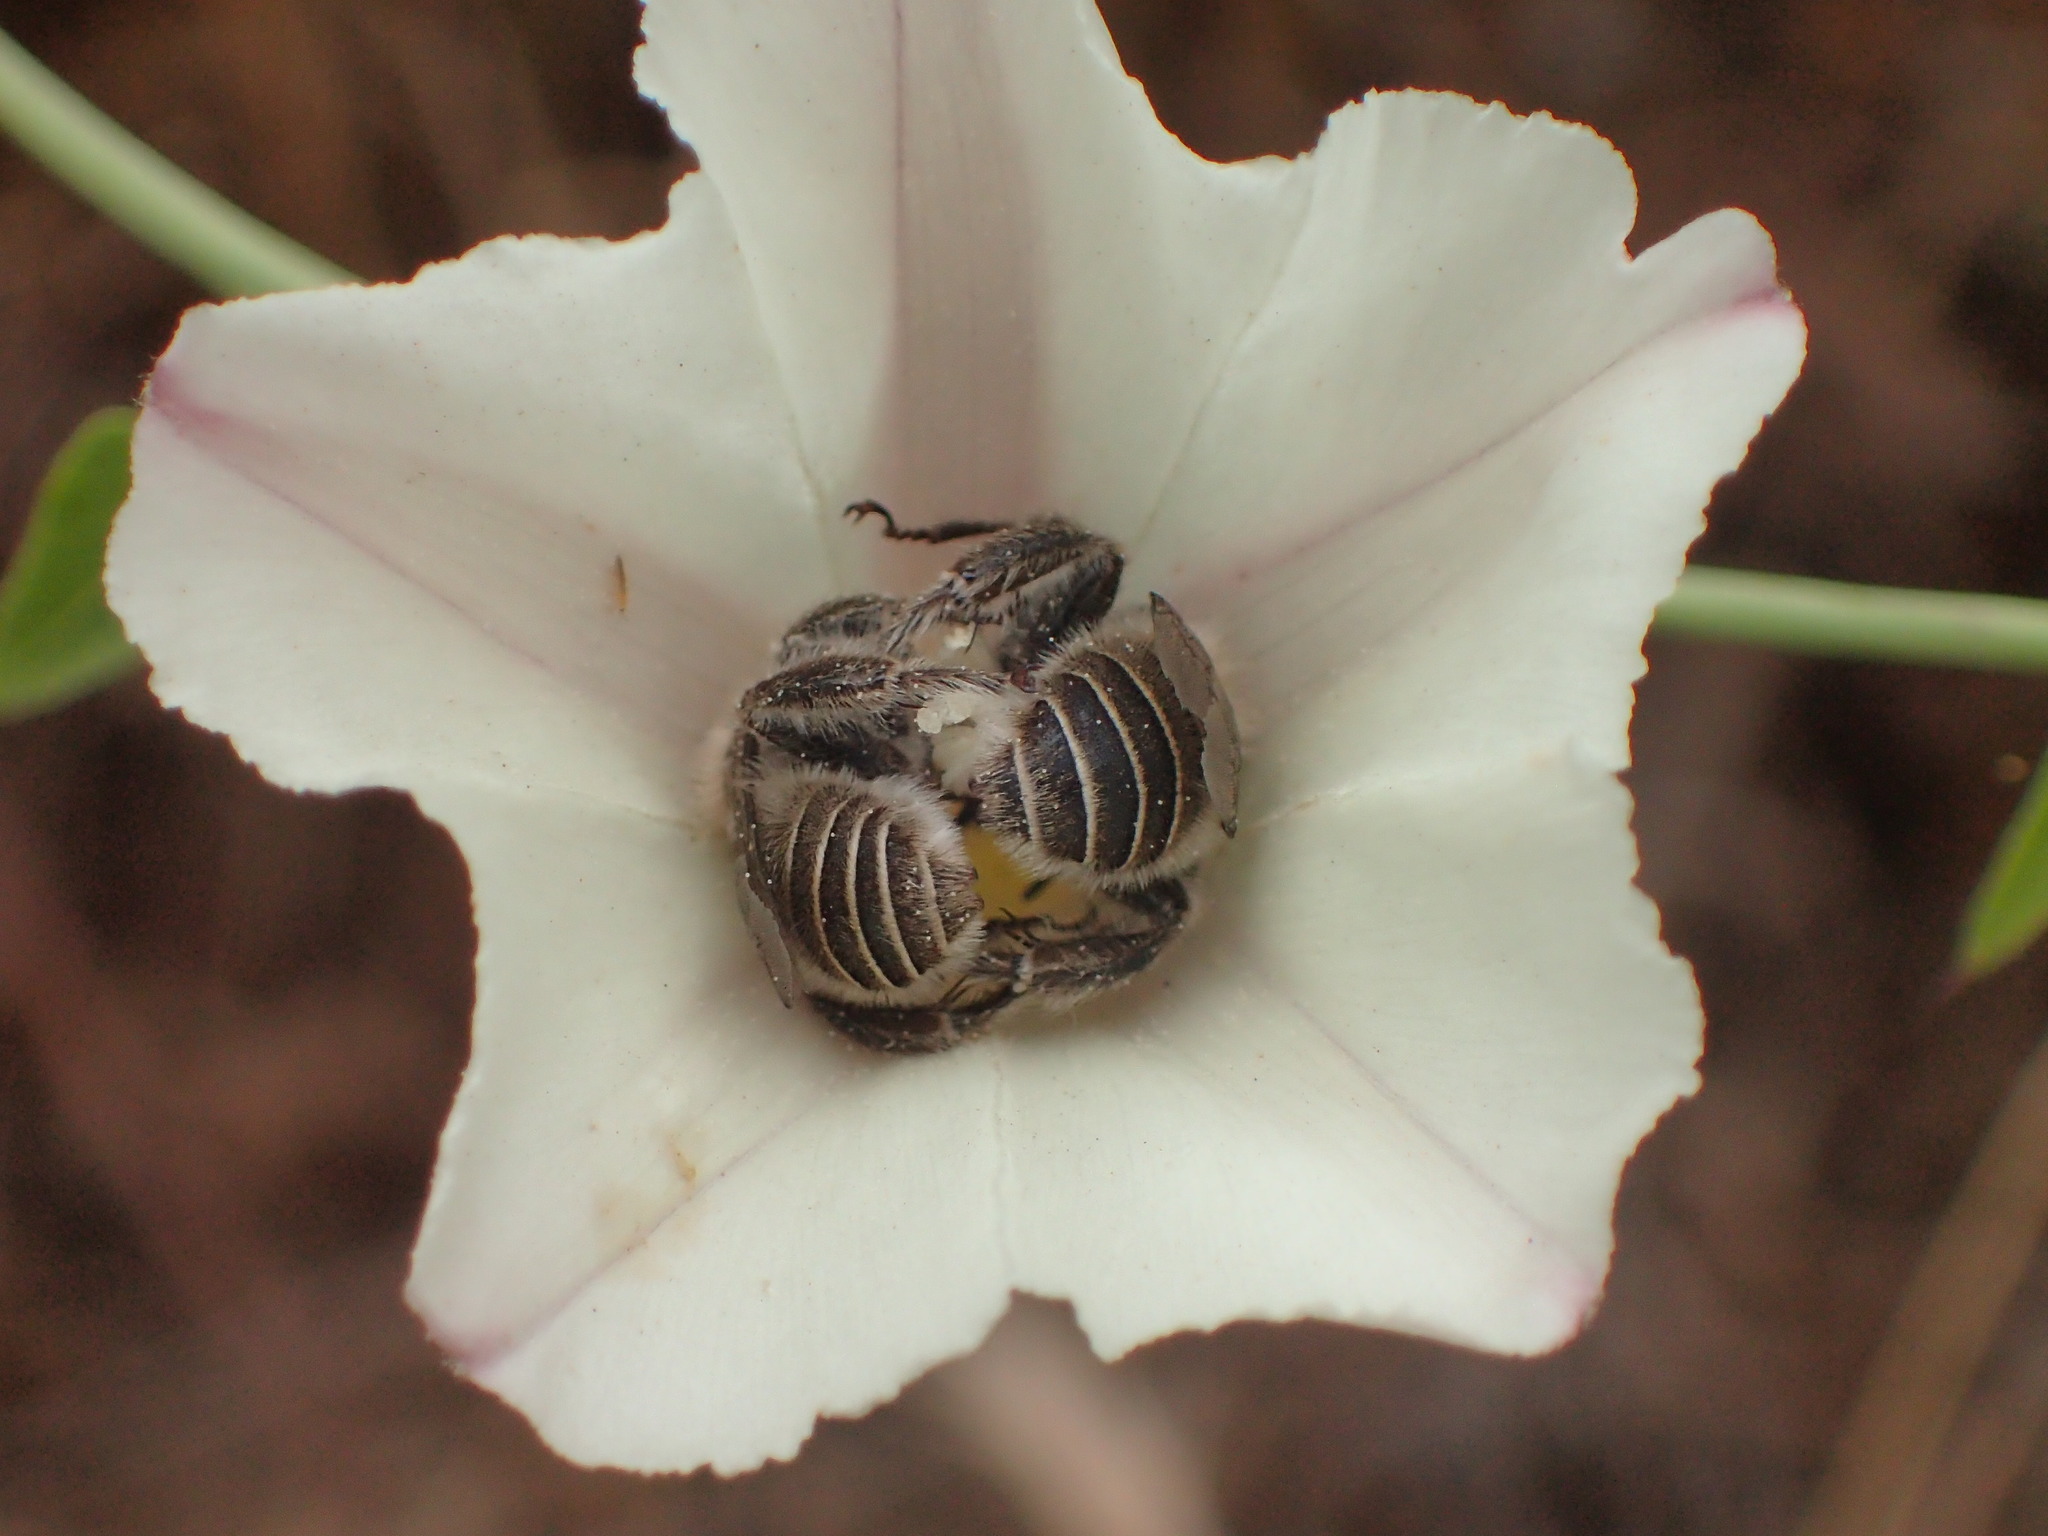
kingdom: Animalia
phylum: Arthropoda
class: Insecta
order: Hymenoptera
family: Apidae
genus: Diadasia
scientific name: Diadasia bituberculata
